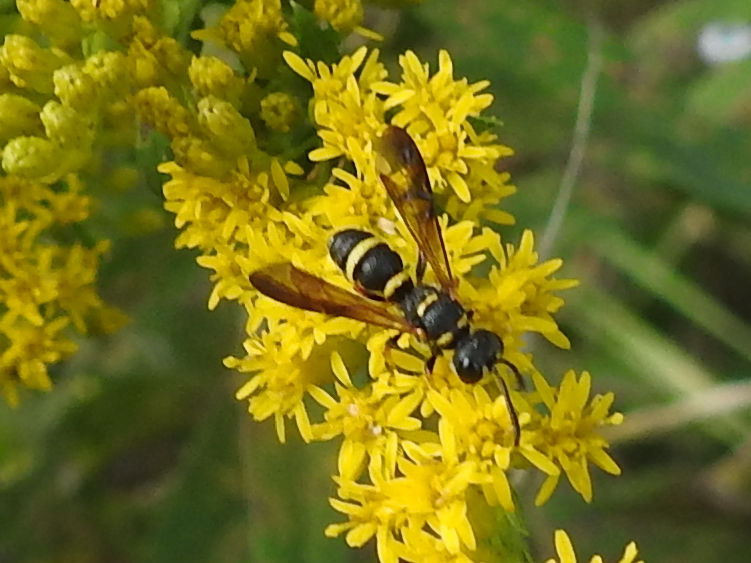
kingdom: Animalia
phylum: Arthropoda
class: Insecta
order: Hymenoptera
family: Crabronidae
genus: Cerceris
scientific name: Cerceris insolita
